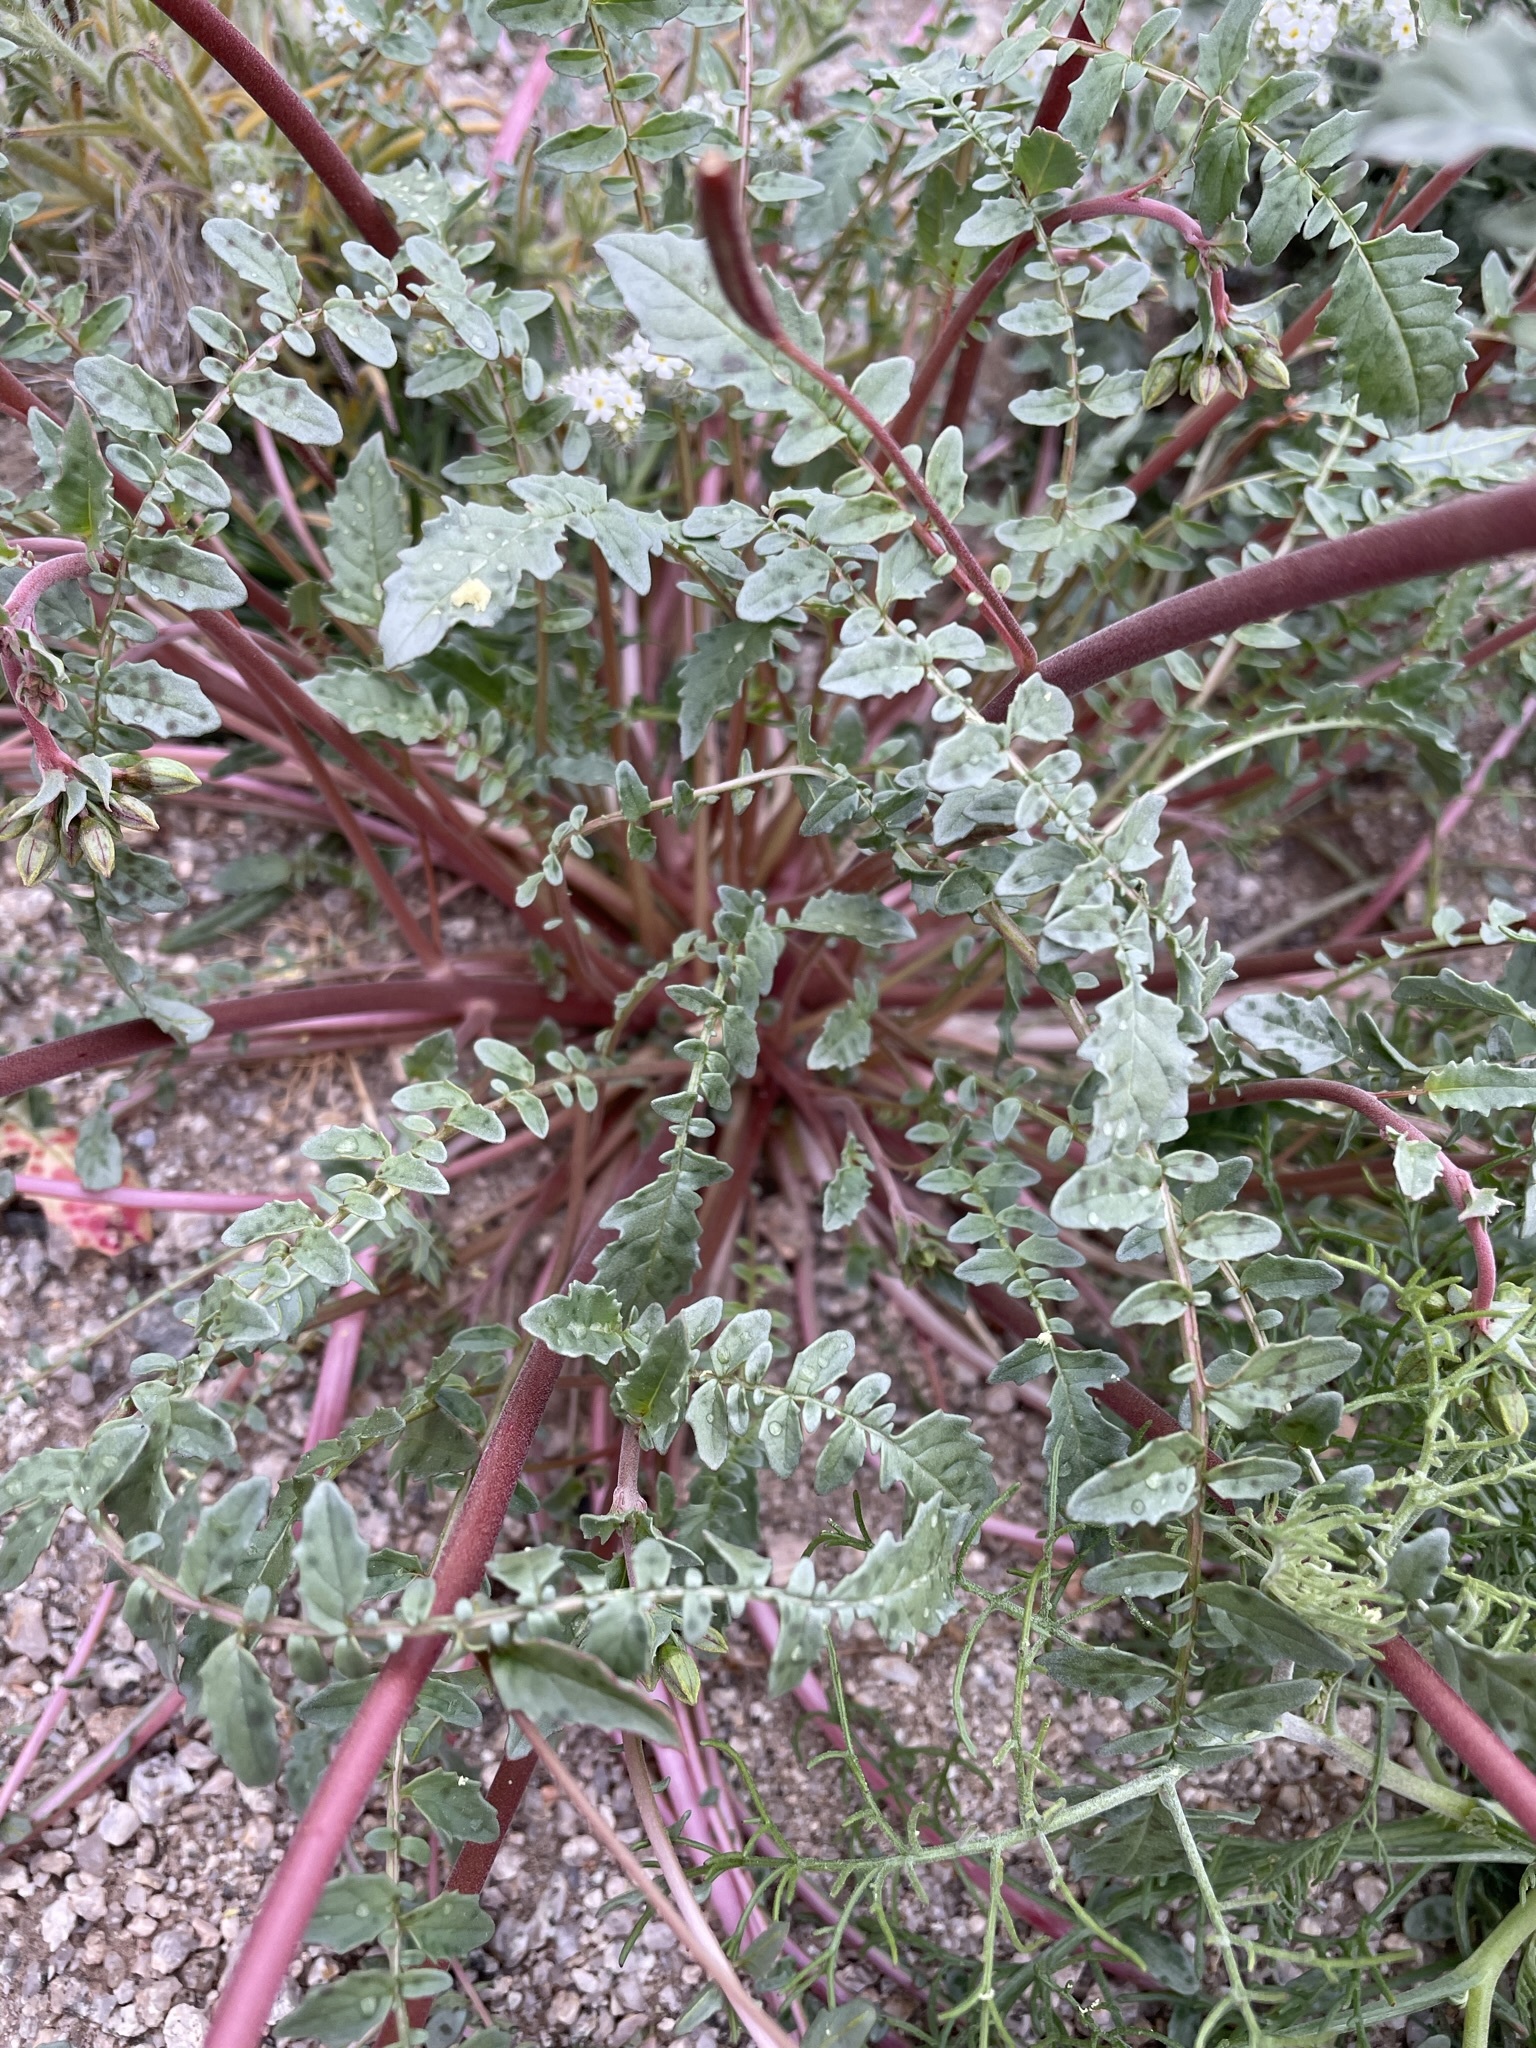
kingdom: Plantae
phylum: Tracheophyta
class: Magnoliopsida
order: Myrtales
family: Onagraceae
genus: Chylismia
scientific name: Chylismia claviformis
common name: Browneyes
